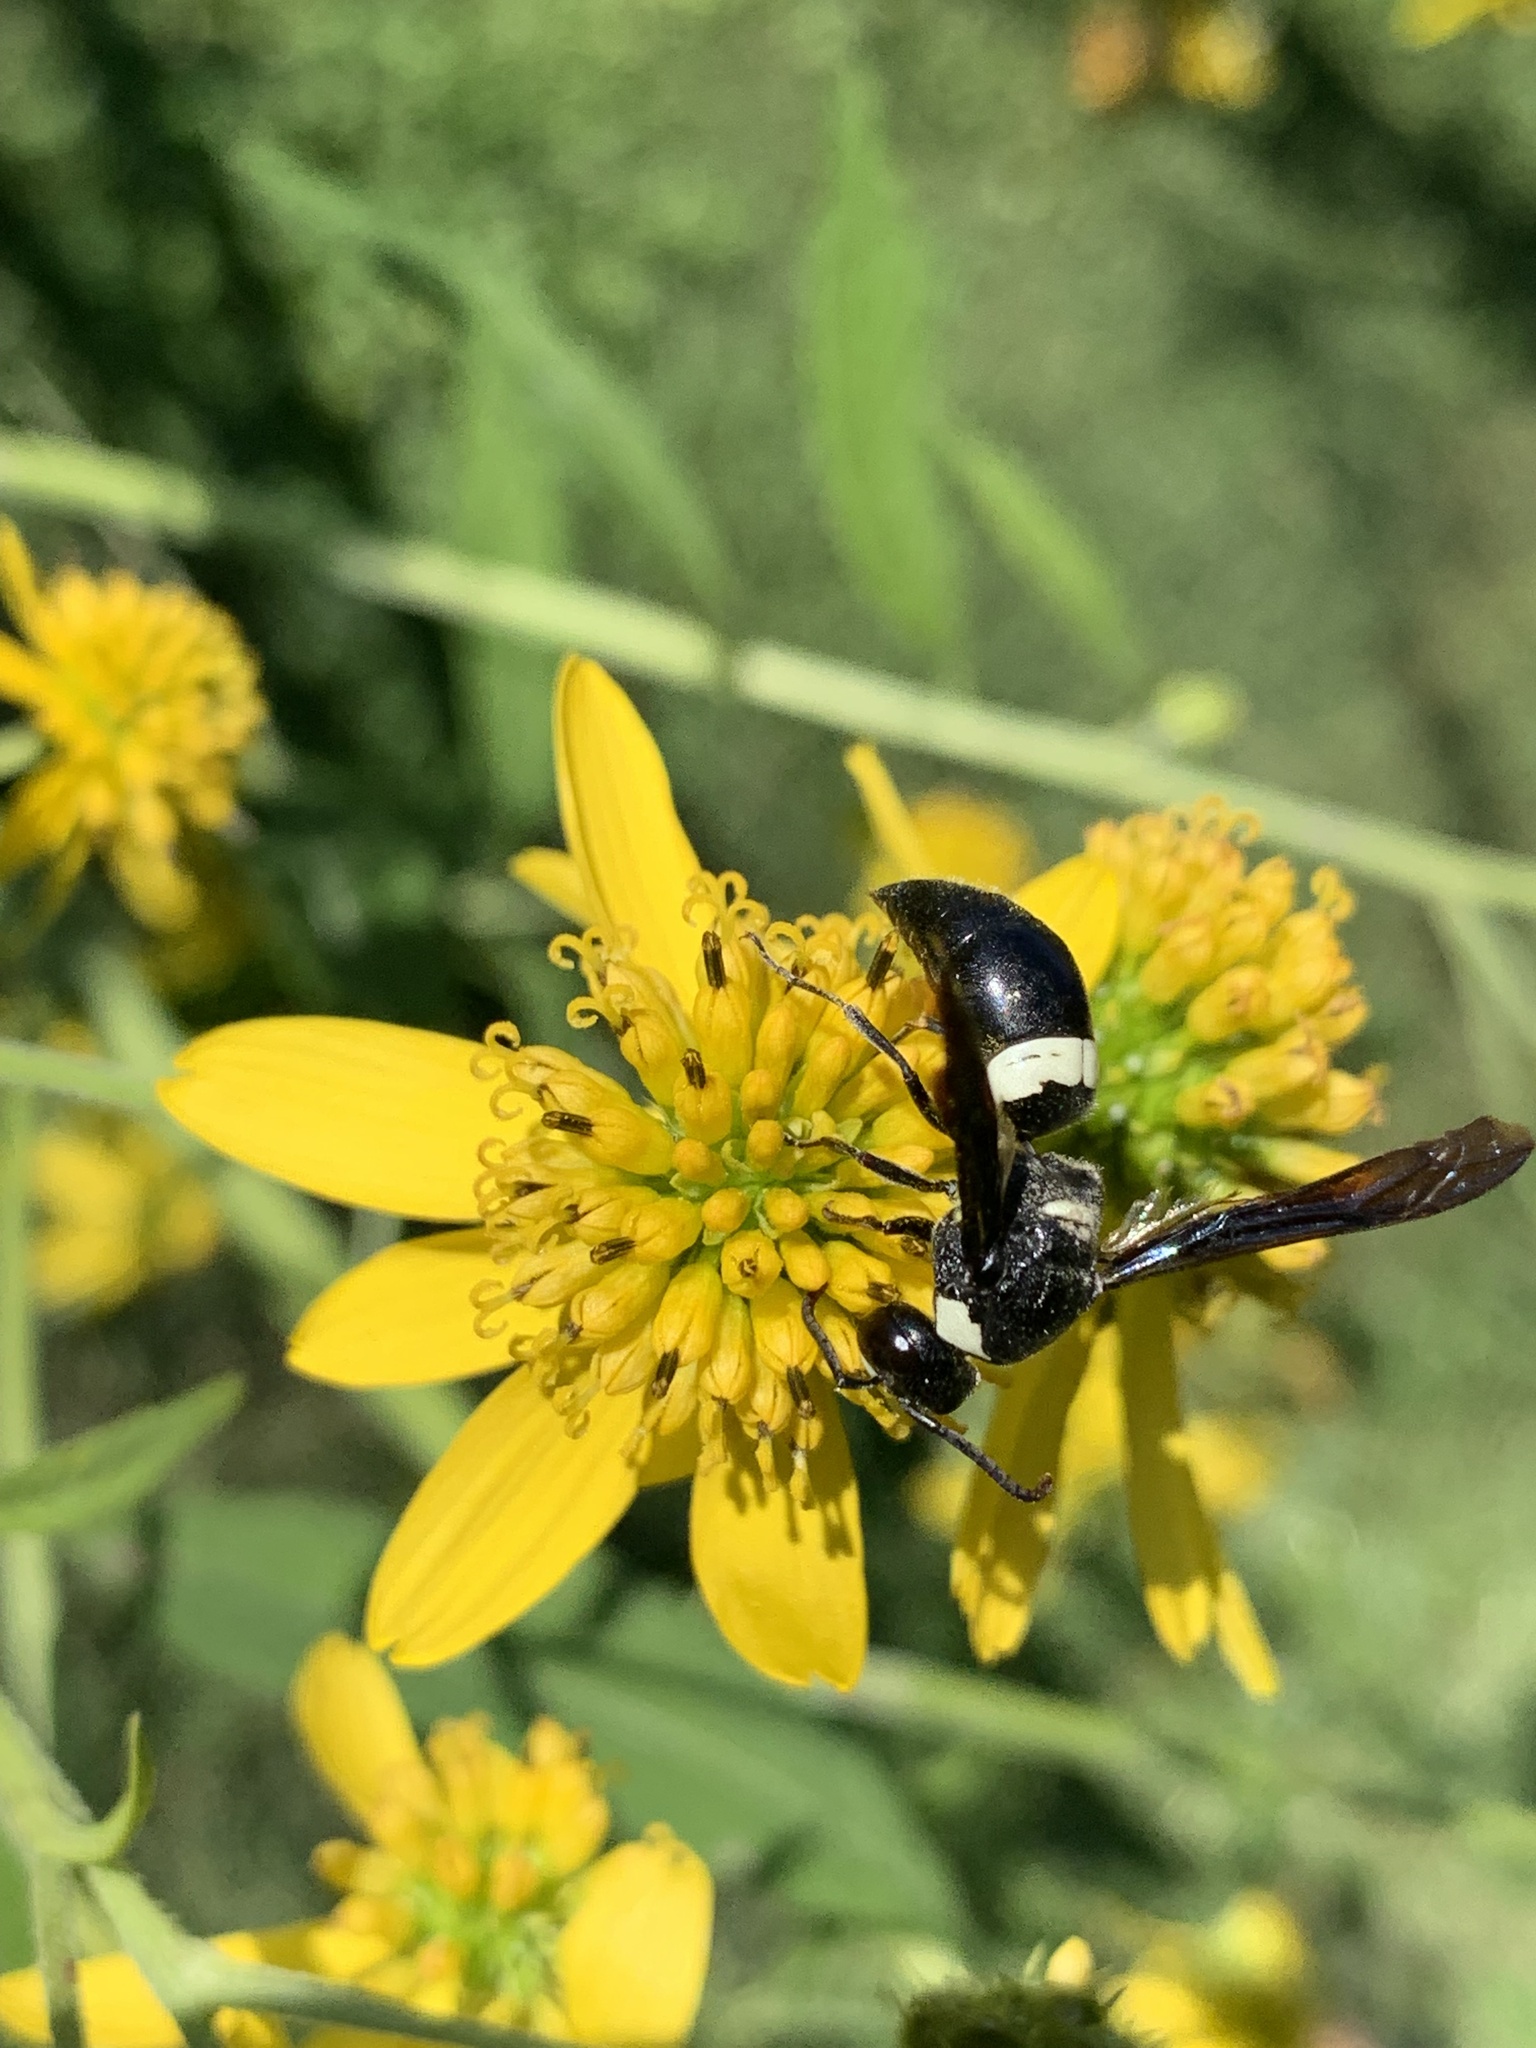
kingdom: Animalia
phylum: Arthropoda
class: Insecta
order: Hymenoptera
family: Eumenidae
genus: Monobia
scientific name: Monobia quadridens
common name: Four-toothed mason wasp
